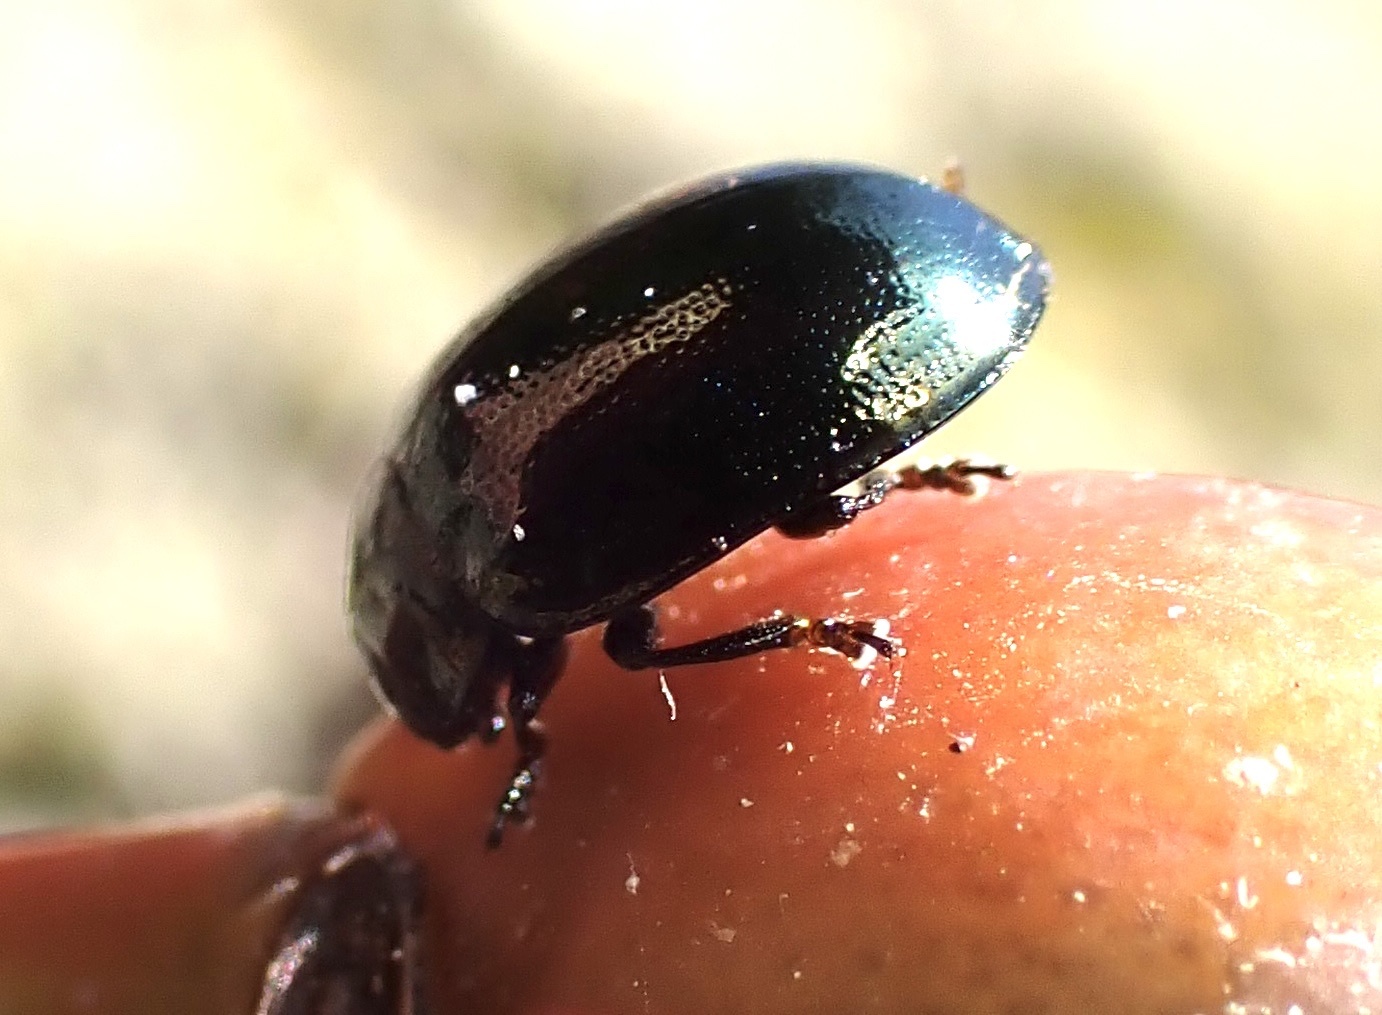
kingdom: Animalia
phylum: Arthropoda
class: Insecta
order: Coleoptera
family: Chrysomelidae
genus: Plagiodera
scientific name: Plagiodera versicolora
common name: Imported willow leaf beetle
